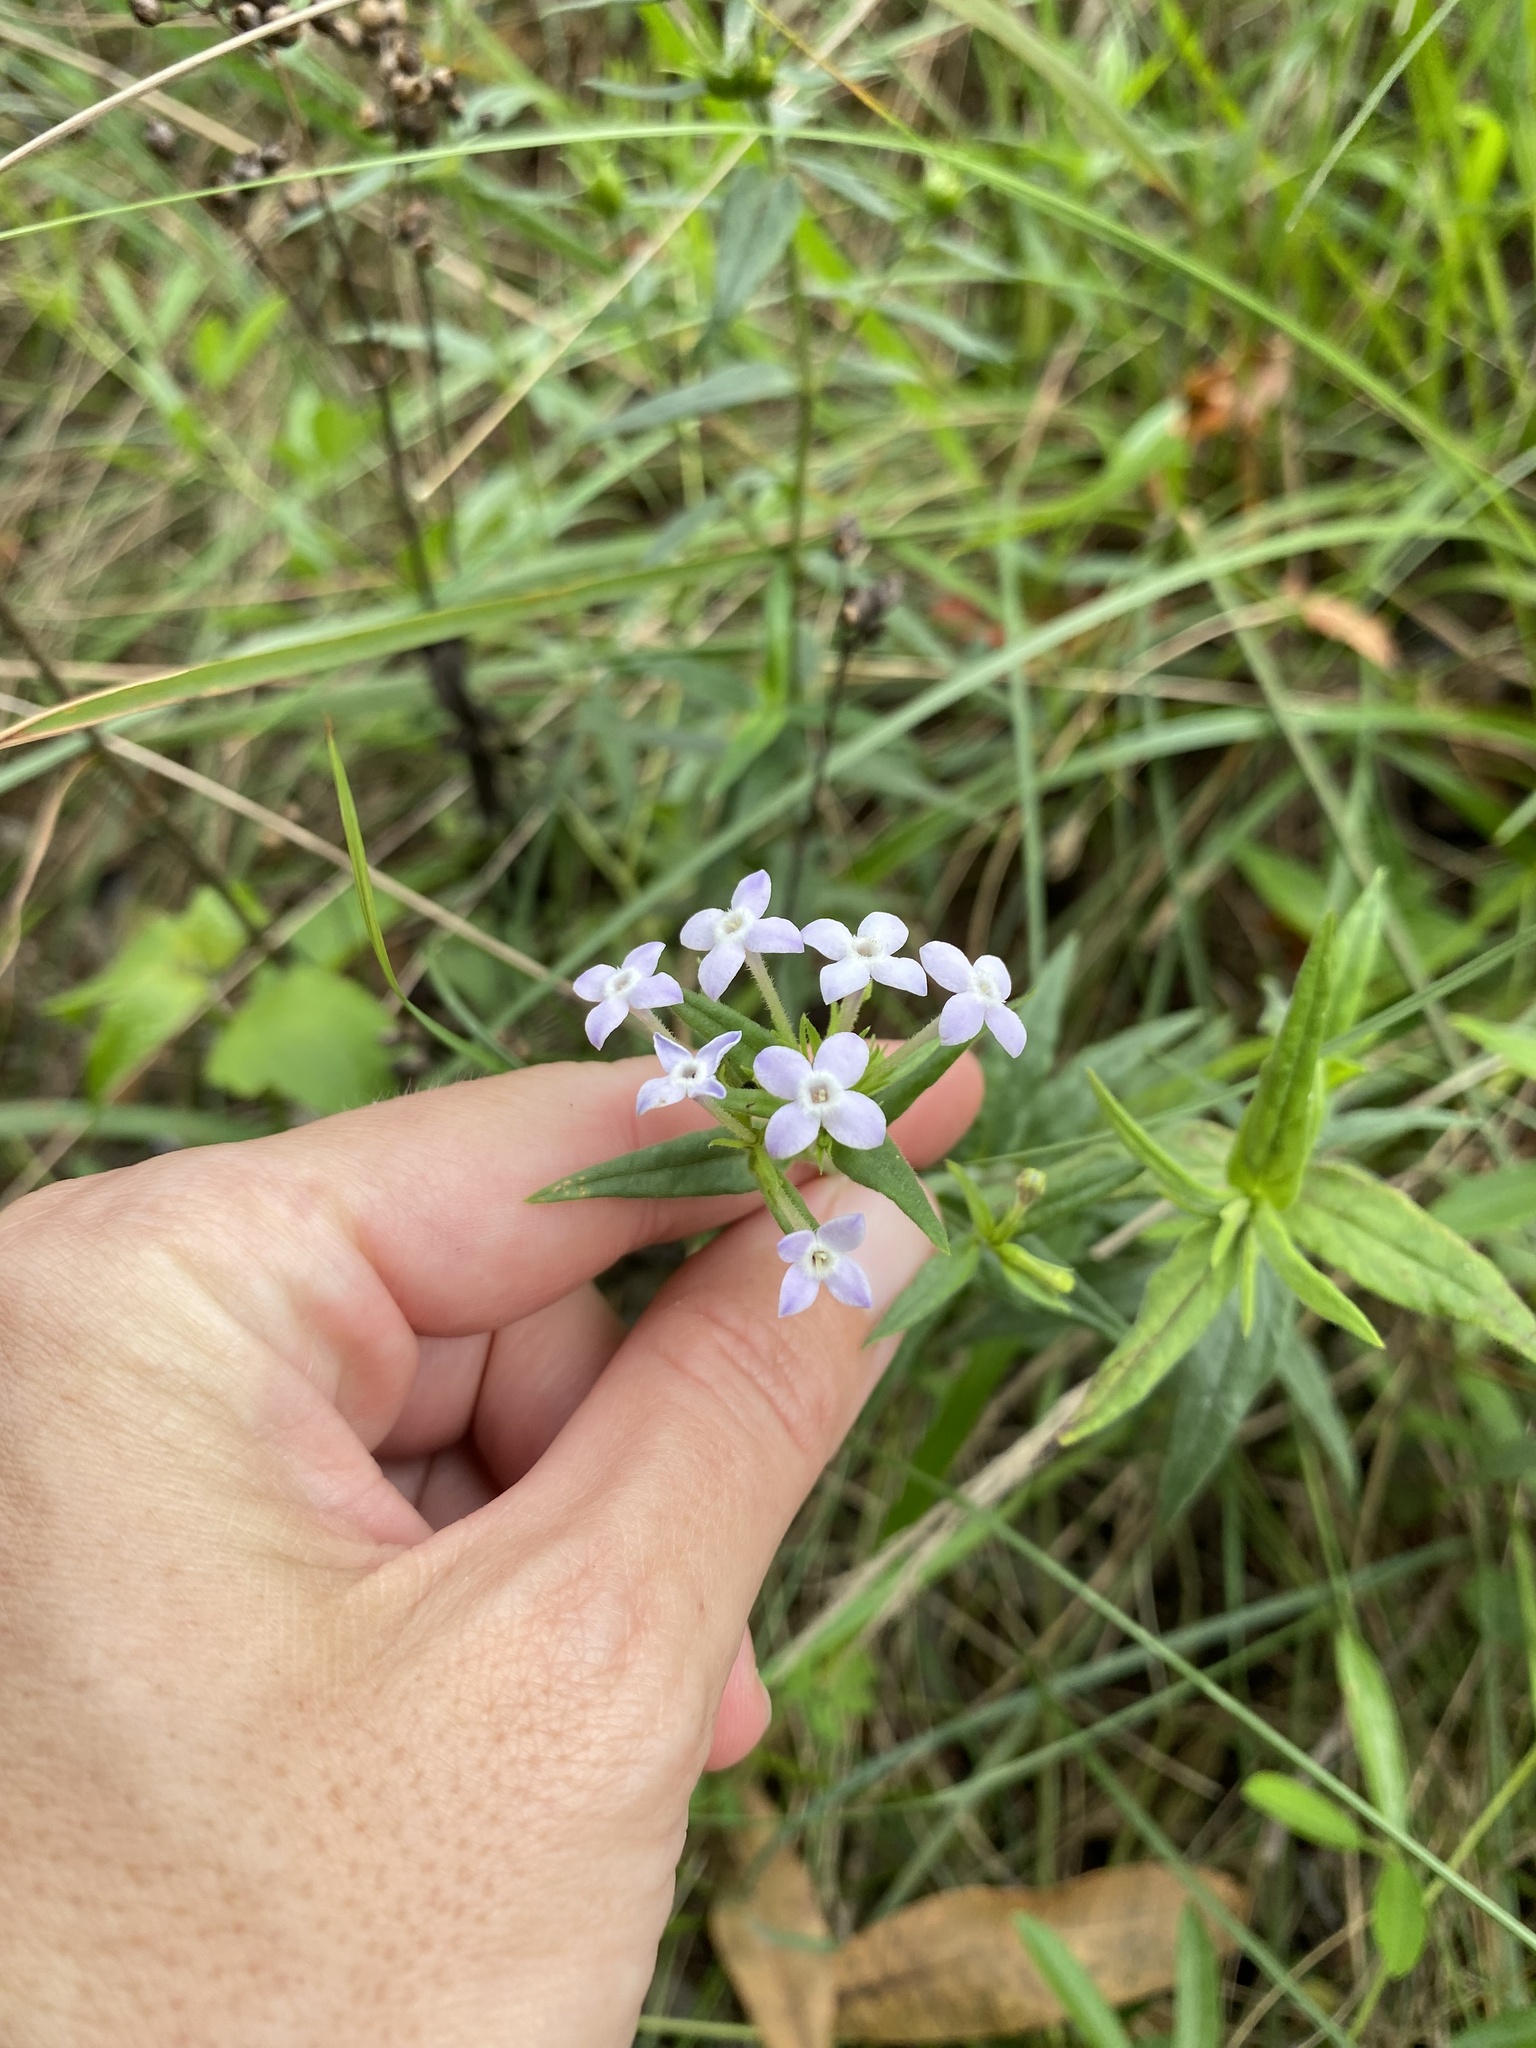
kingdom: Plantae
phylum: Tracheophyta
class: Magnoliopsida
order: Gentianales
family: Rubiaceae
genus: Conostomium
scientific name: Conostomium natalense
